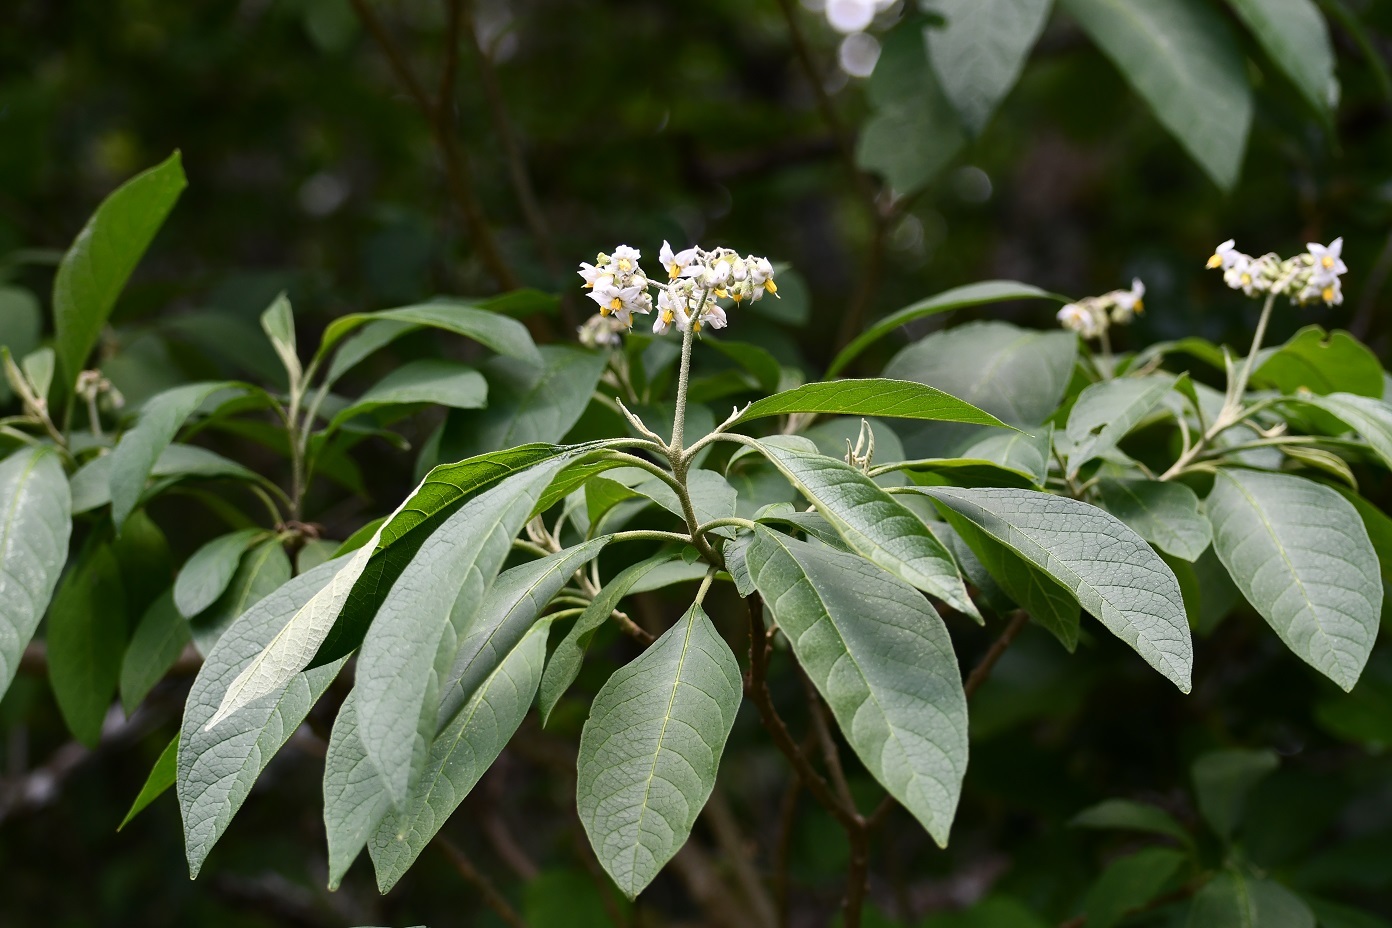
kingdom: Plantae
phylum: Tracheophyta
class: Magnoliopsida
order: Solanales
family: Solanaceae
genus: Solanum
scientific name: Solanum chiapasense
